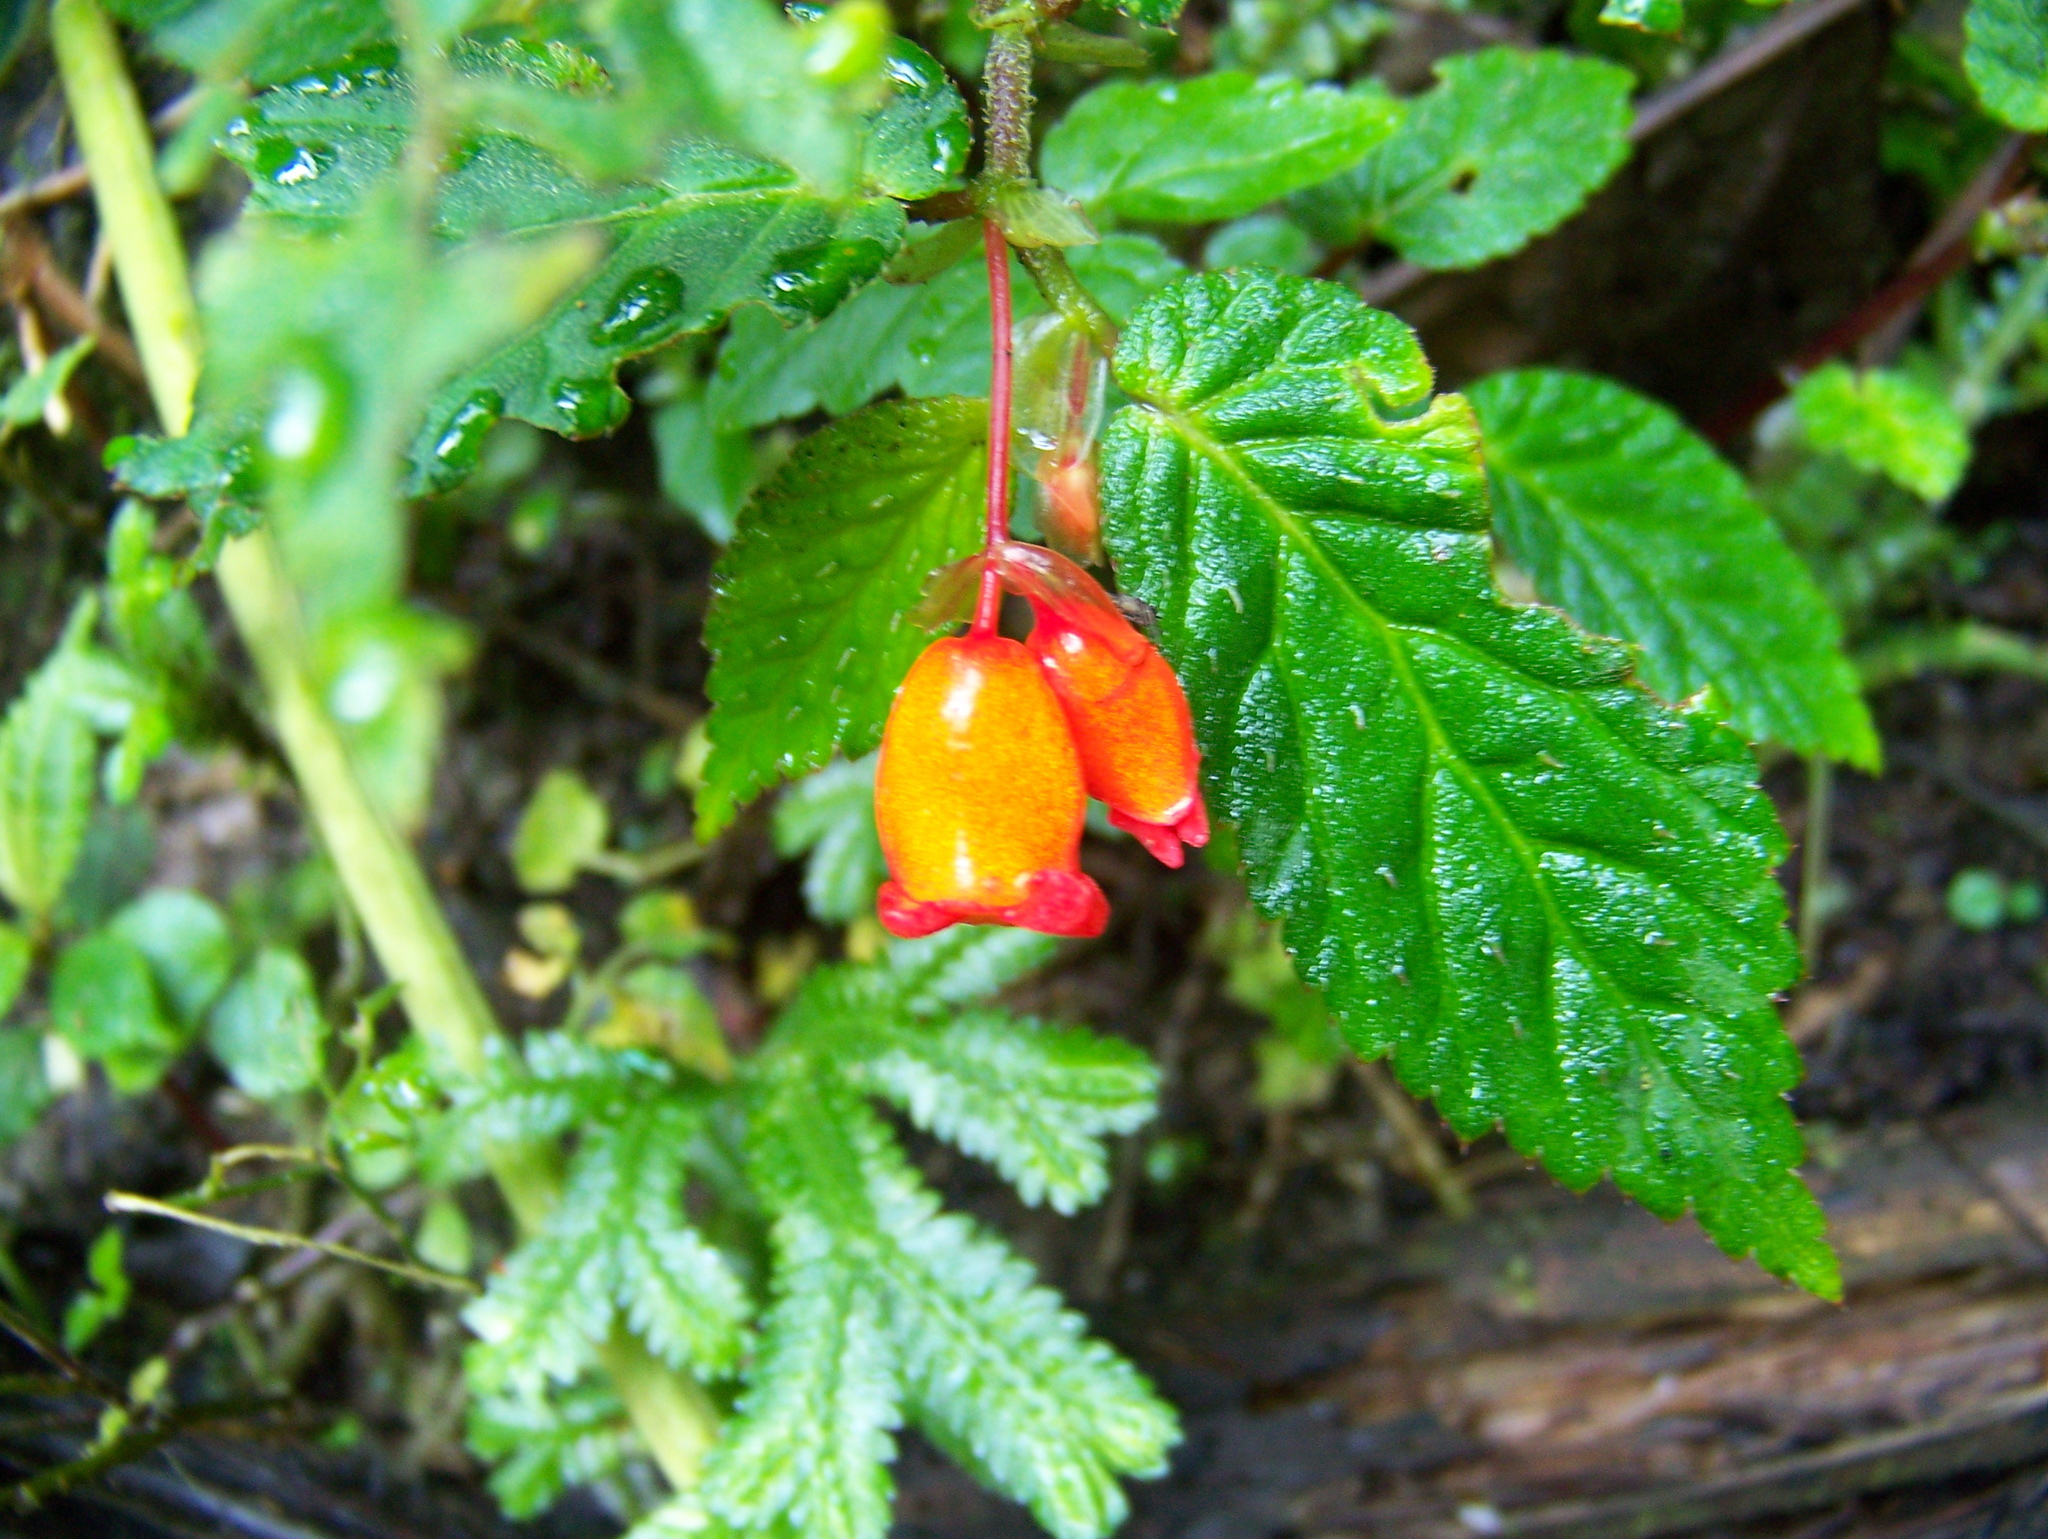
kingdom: Plantae
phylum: Tracheophyta
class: Magnoliopsida
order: Cucurbitales
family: Begoniaceae
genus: Begonia
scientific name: Begonia longirostris
